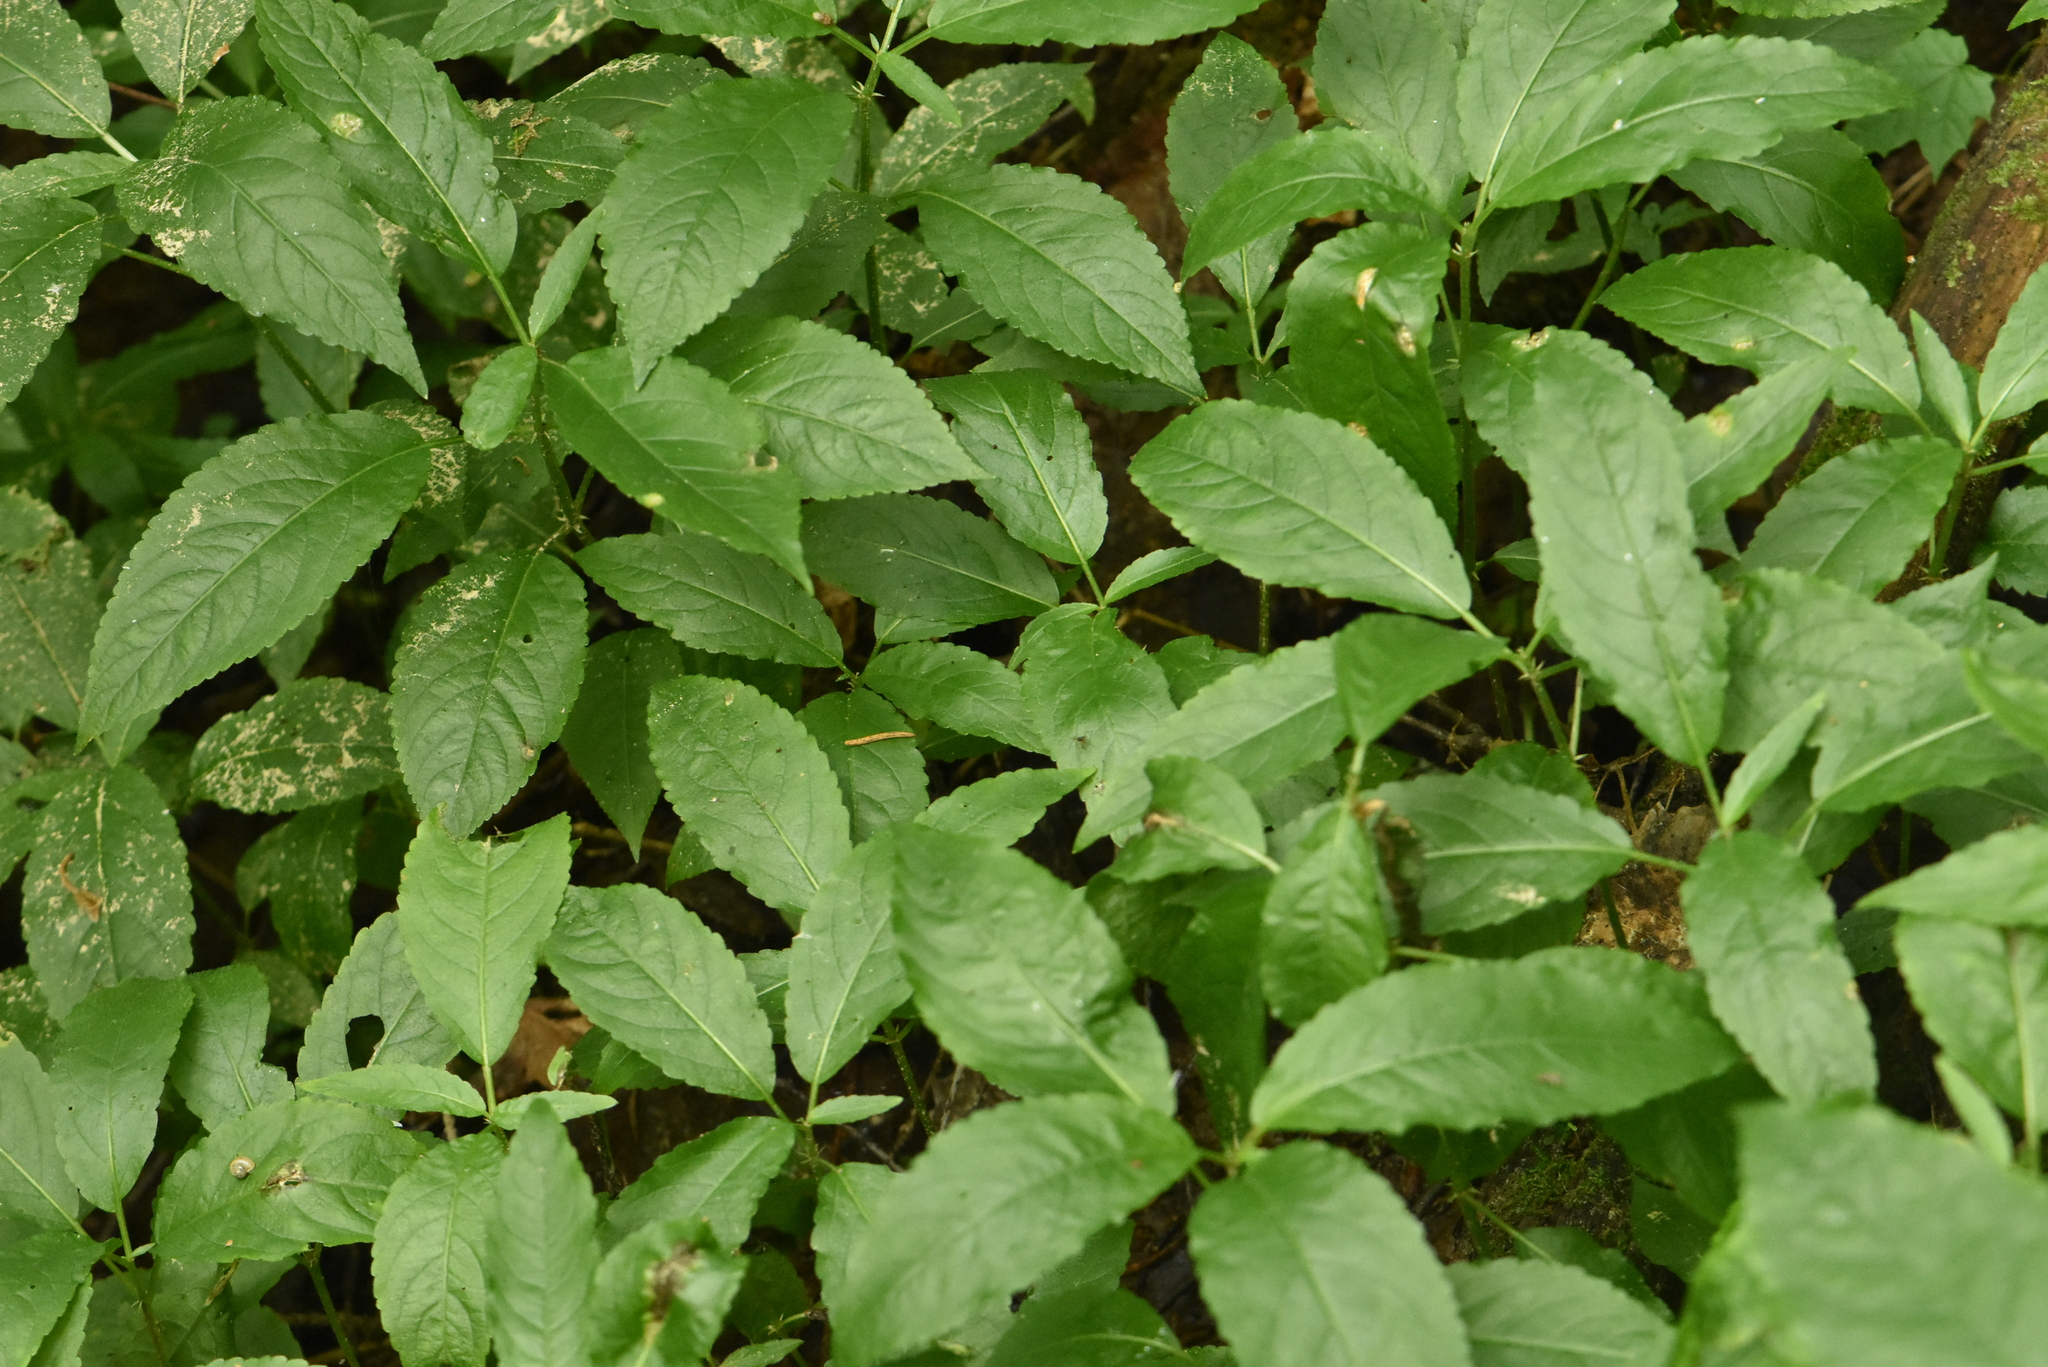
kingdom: Plantae
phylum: Tracheophyta
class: Magnoliopsida
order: Malpighiales
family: Euphorbiaceae
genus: Mercurialis
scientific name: Mercurialis perennis
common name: Dog mercury
